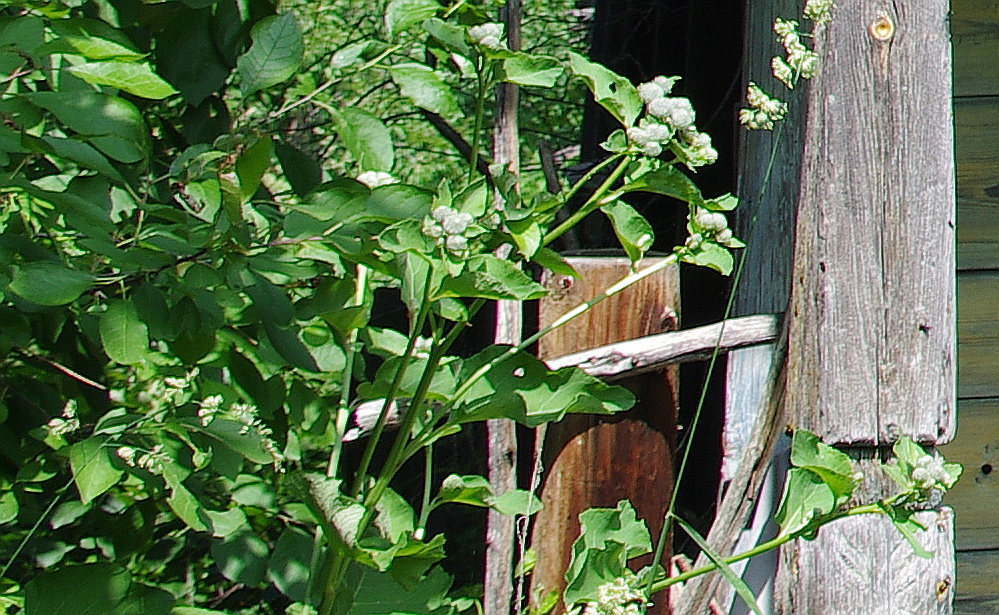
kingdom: Plantae
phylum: Tracheophyta
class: Magnoliopsida
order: Asterales
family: Asteraceae
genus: Arctium
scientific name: Arctium tomentosum
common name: Woolly burdock
